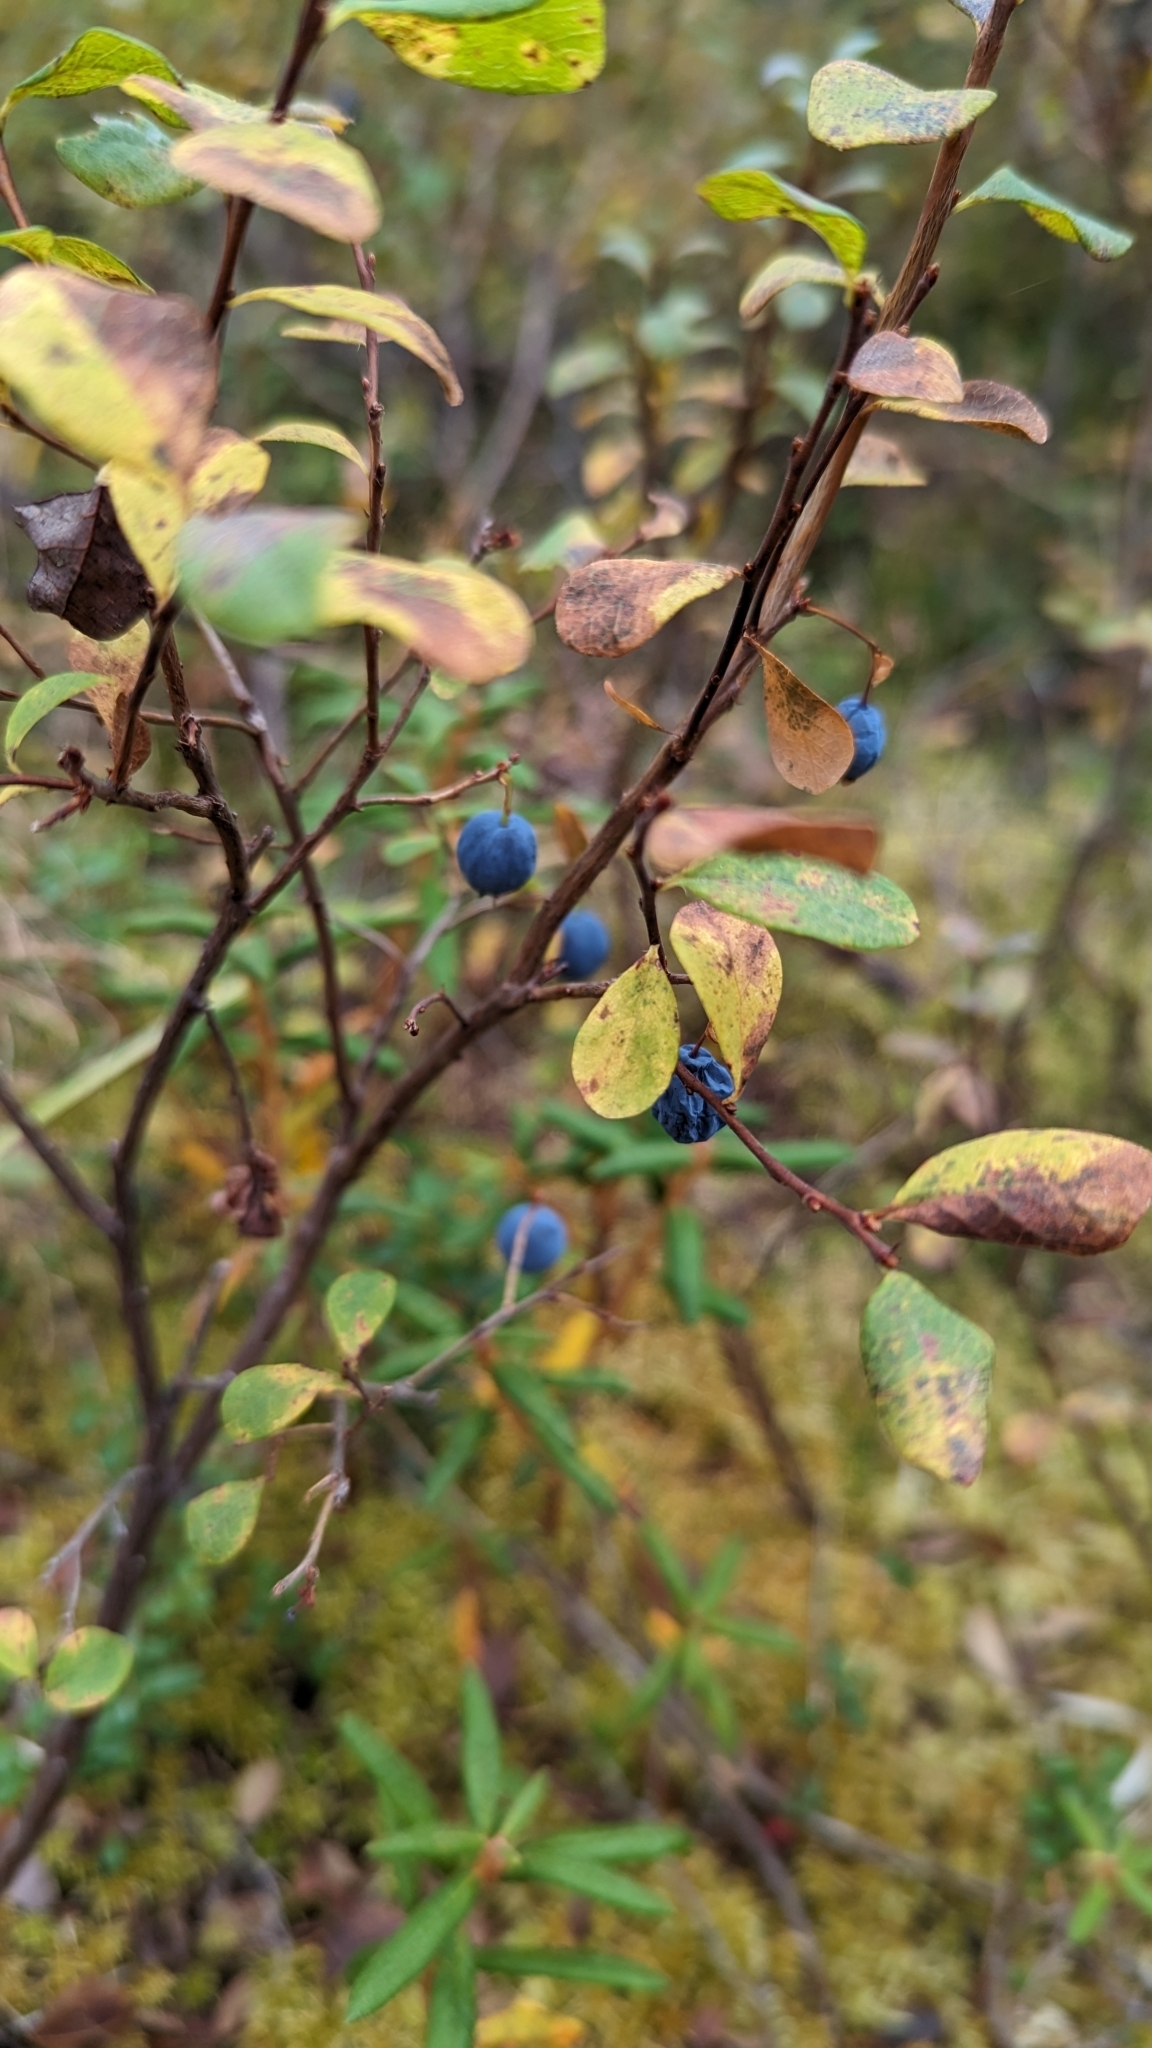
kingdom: Plantae
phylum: Tracheophyta
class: Magnoliopsida
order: Ericales
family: Ericaceae
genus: Vaccinium
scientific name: Vaccinium uliginosum
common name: Bog bilberry
